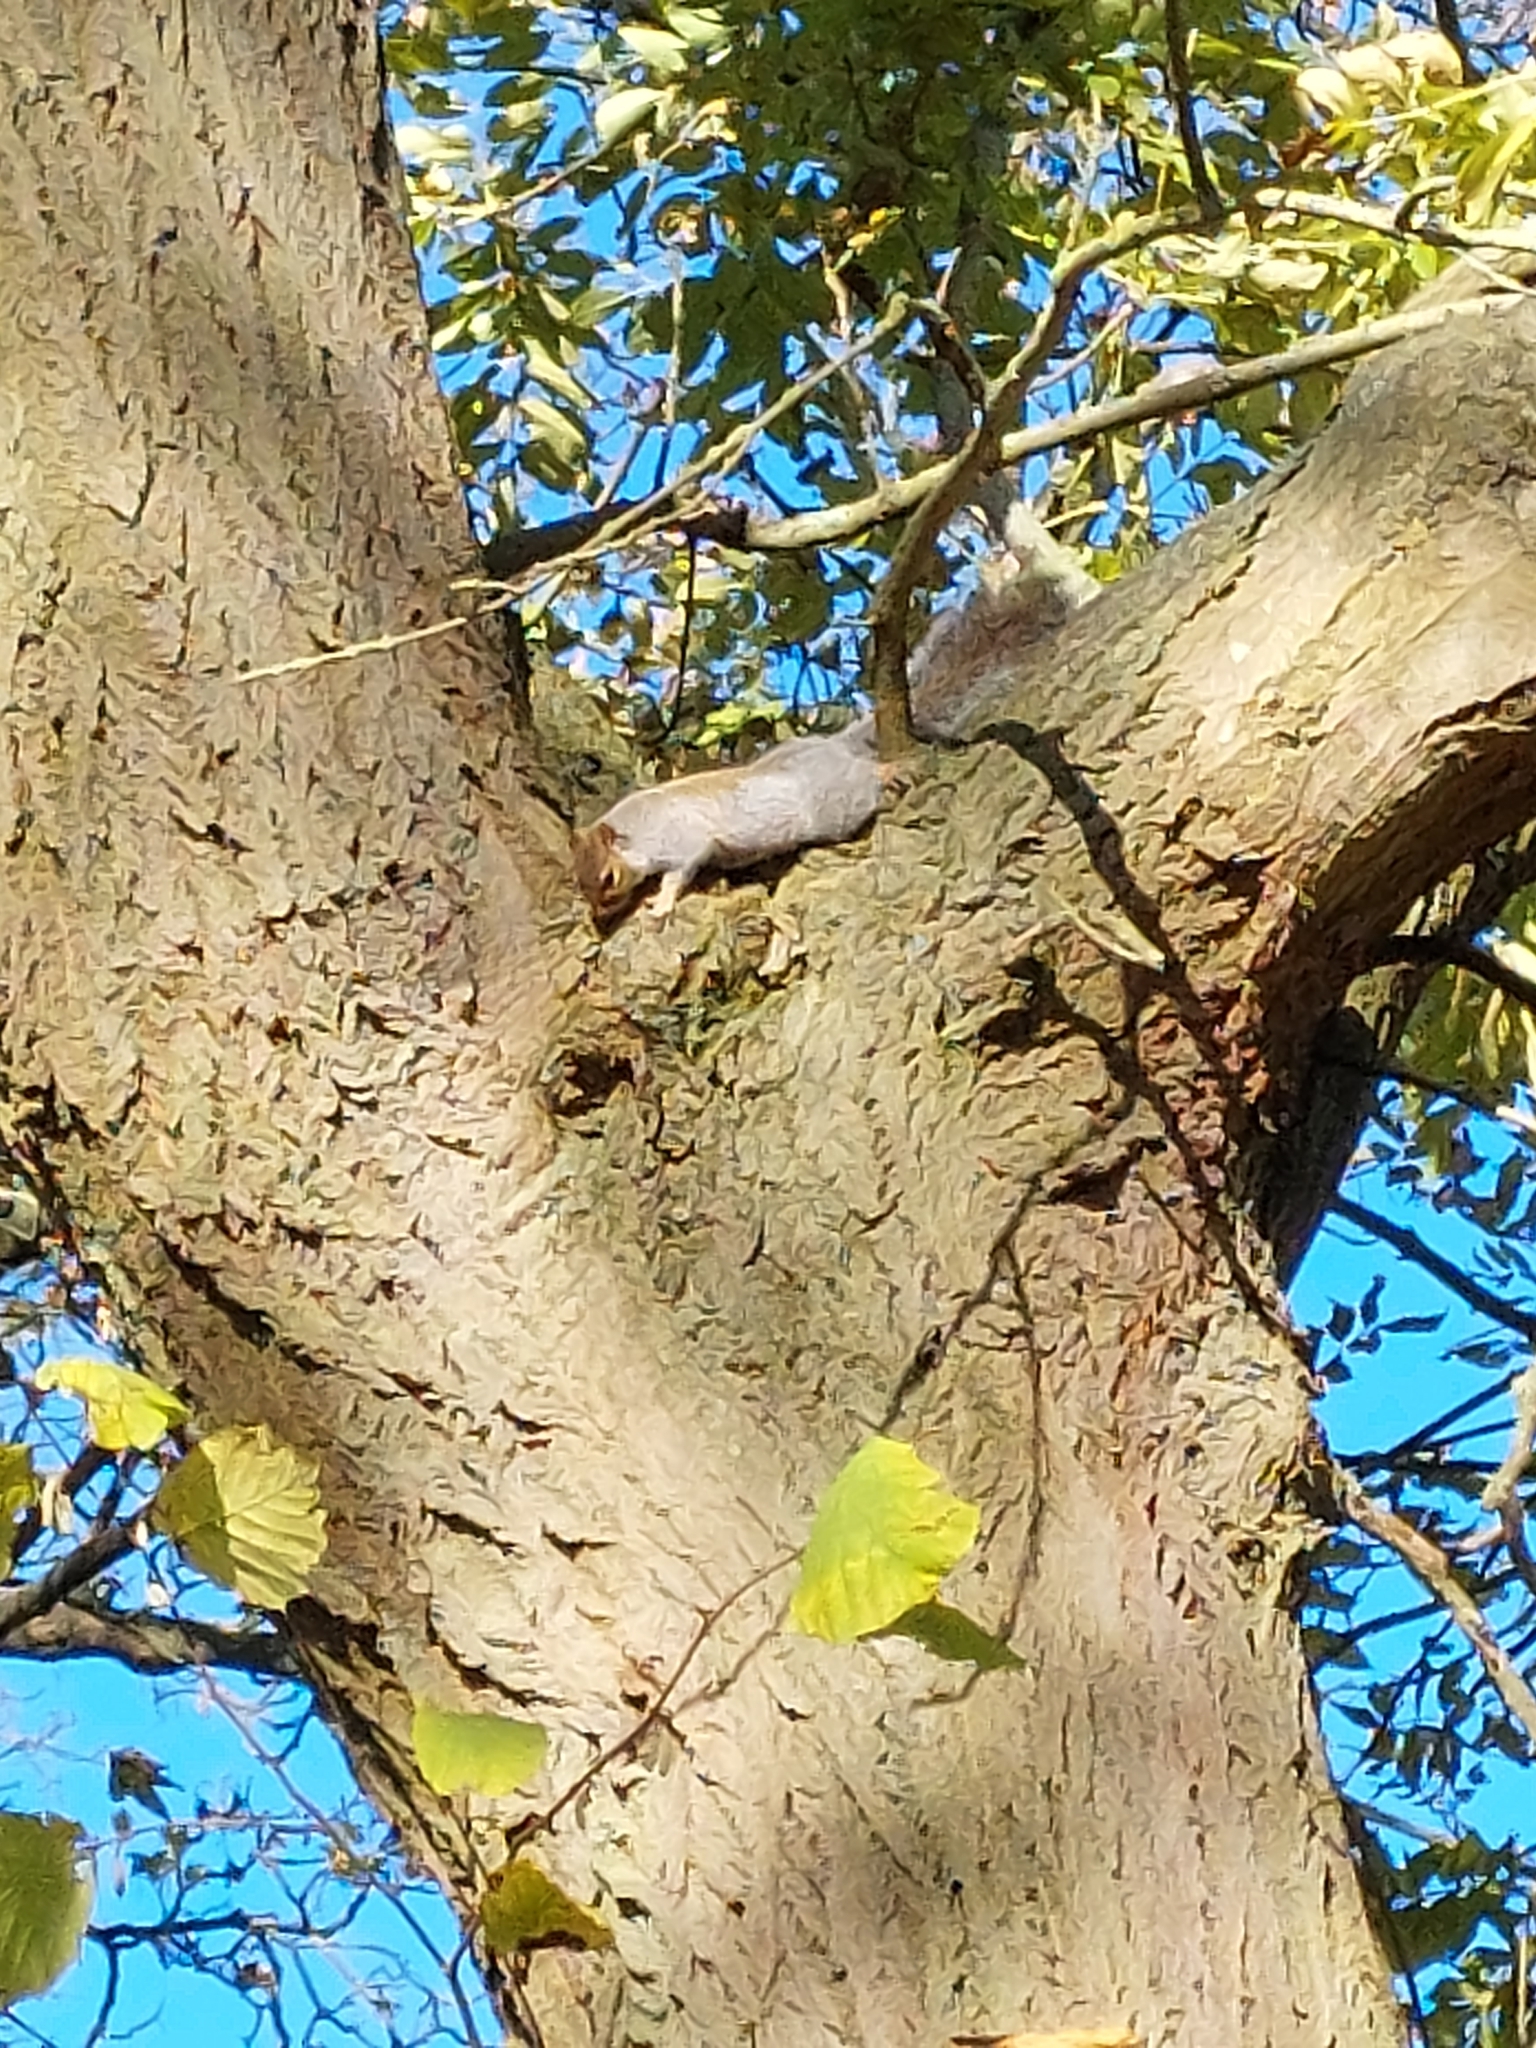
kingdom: Animalia
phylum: Chordata
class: Mammalia
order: Rodentia
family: Sciuridae
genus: Sciurus
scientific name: Sciurus carolinensis
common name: Eastern gray squirrel
